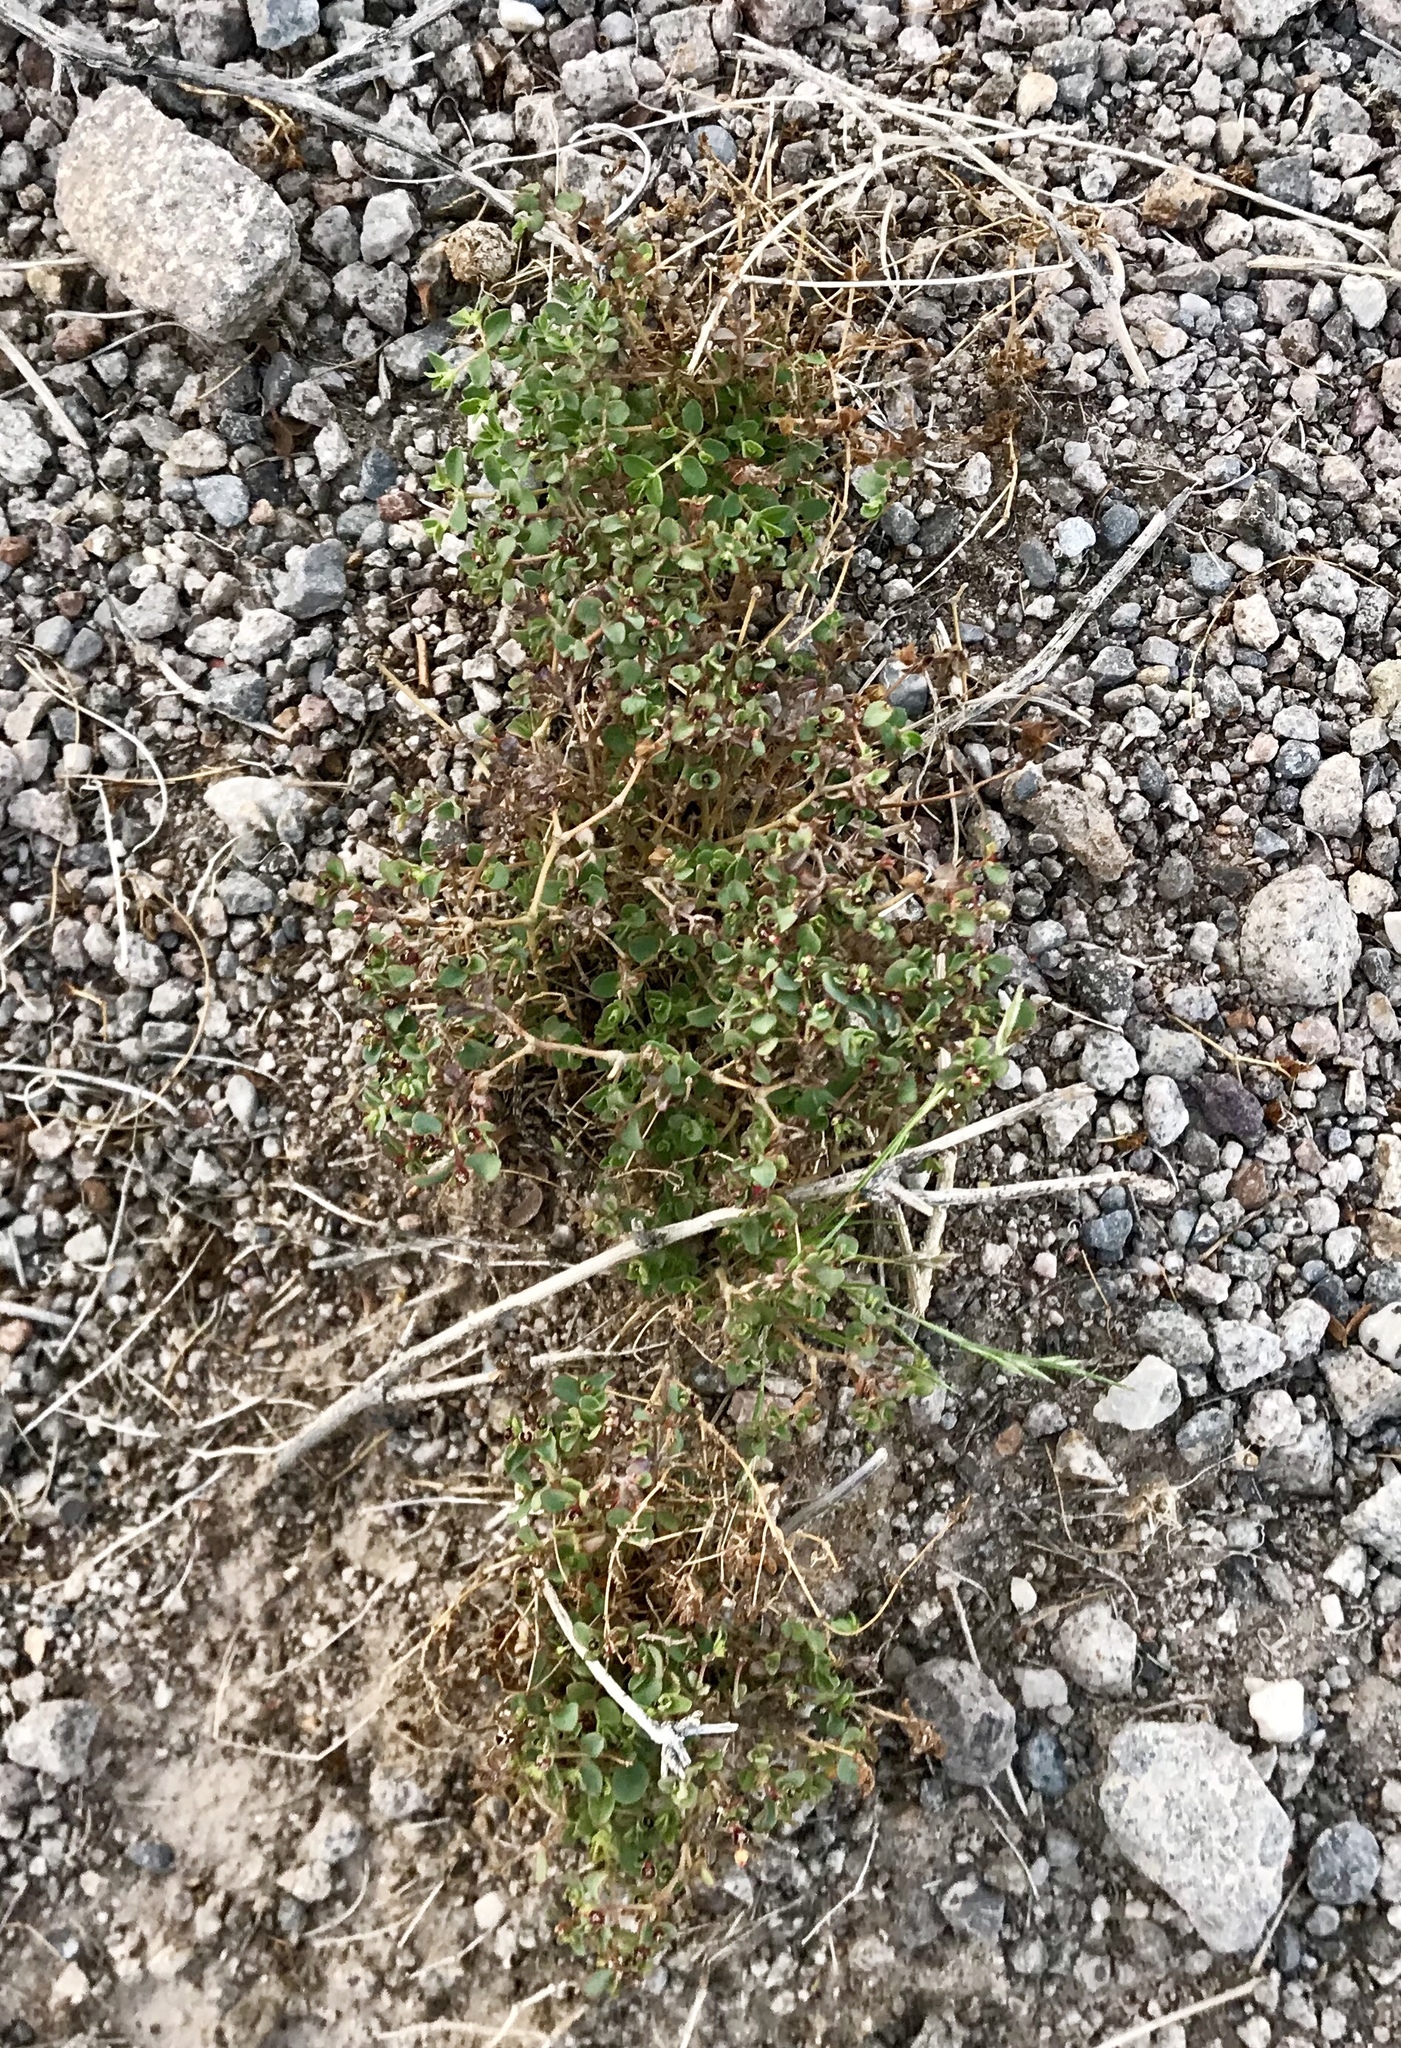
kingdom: Plantae
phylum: Tracheophyta
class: Magnoliopsida
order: Malpighiales
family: Euphorbiaceae
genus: Euphorbia
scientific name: Euphorbia polycarpa
